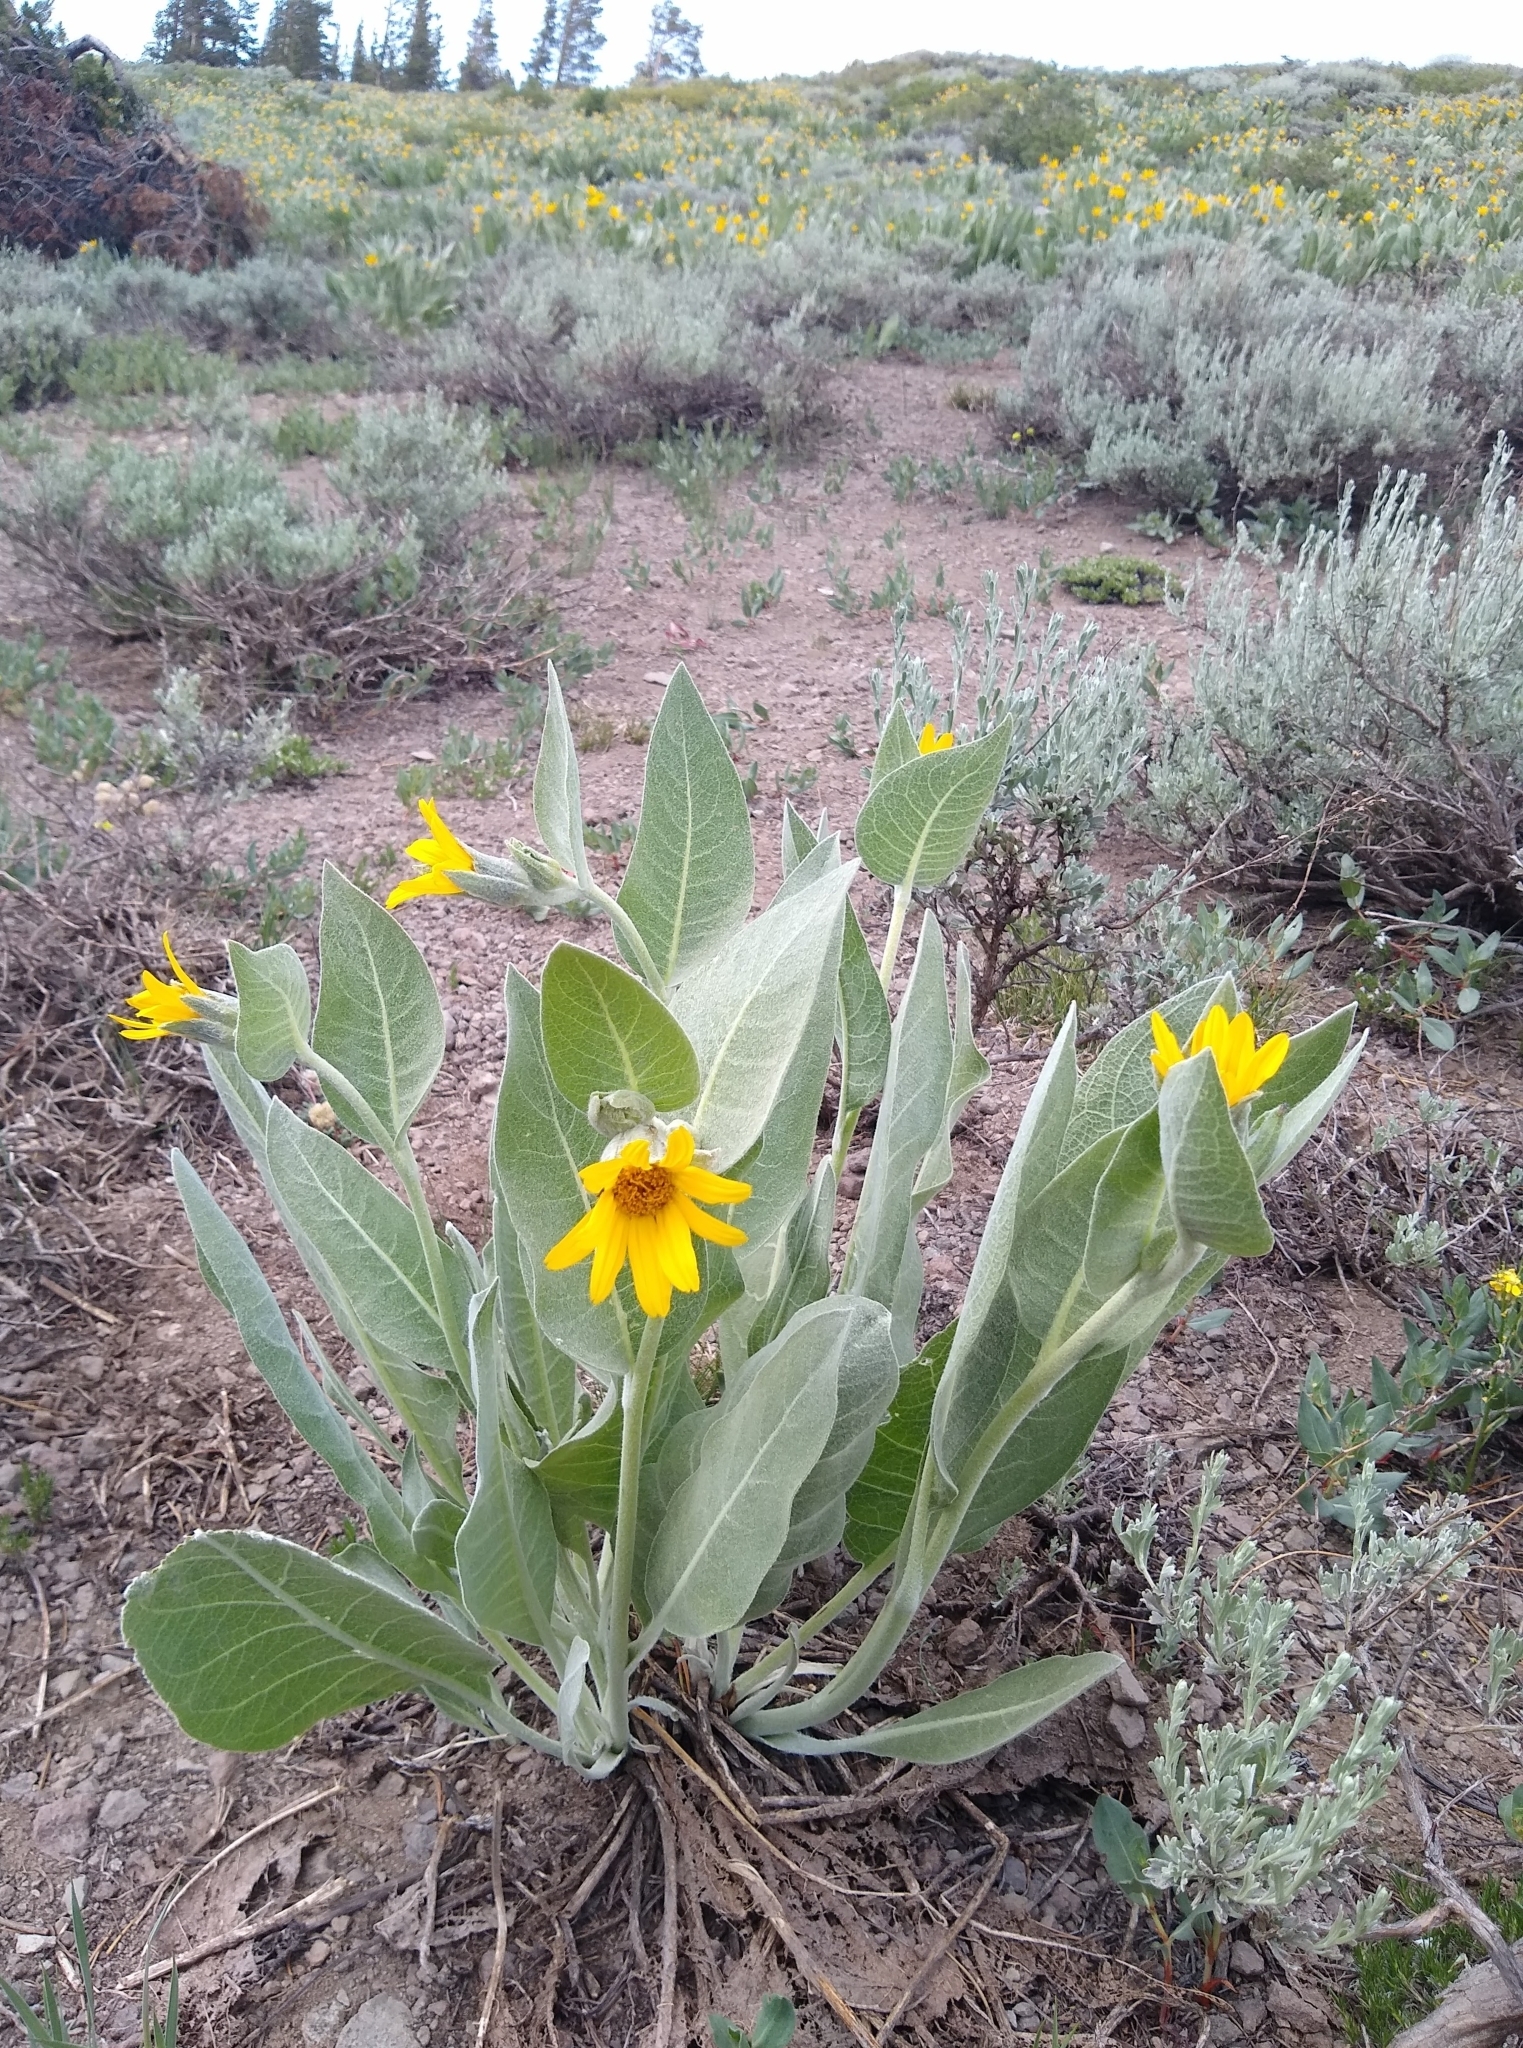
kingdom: Plantae
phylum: Tracheophyta
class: Magnoliopsida
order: Asterales
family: Asteraceae
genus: Wyethia
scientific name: Wyethia mollis
